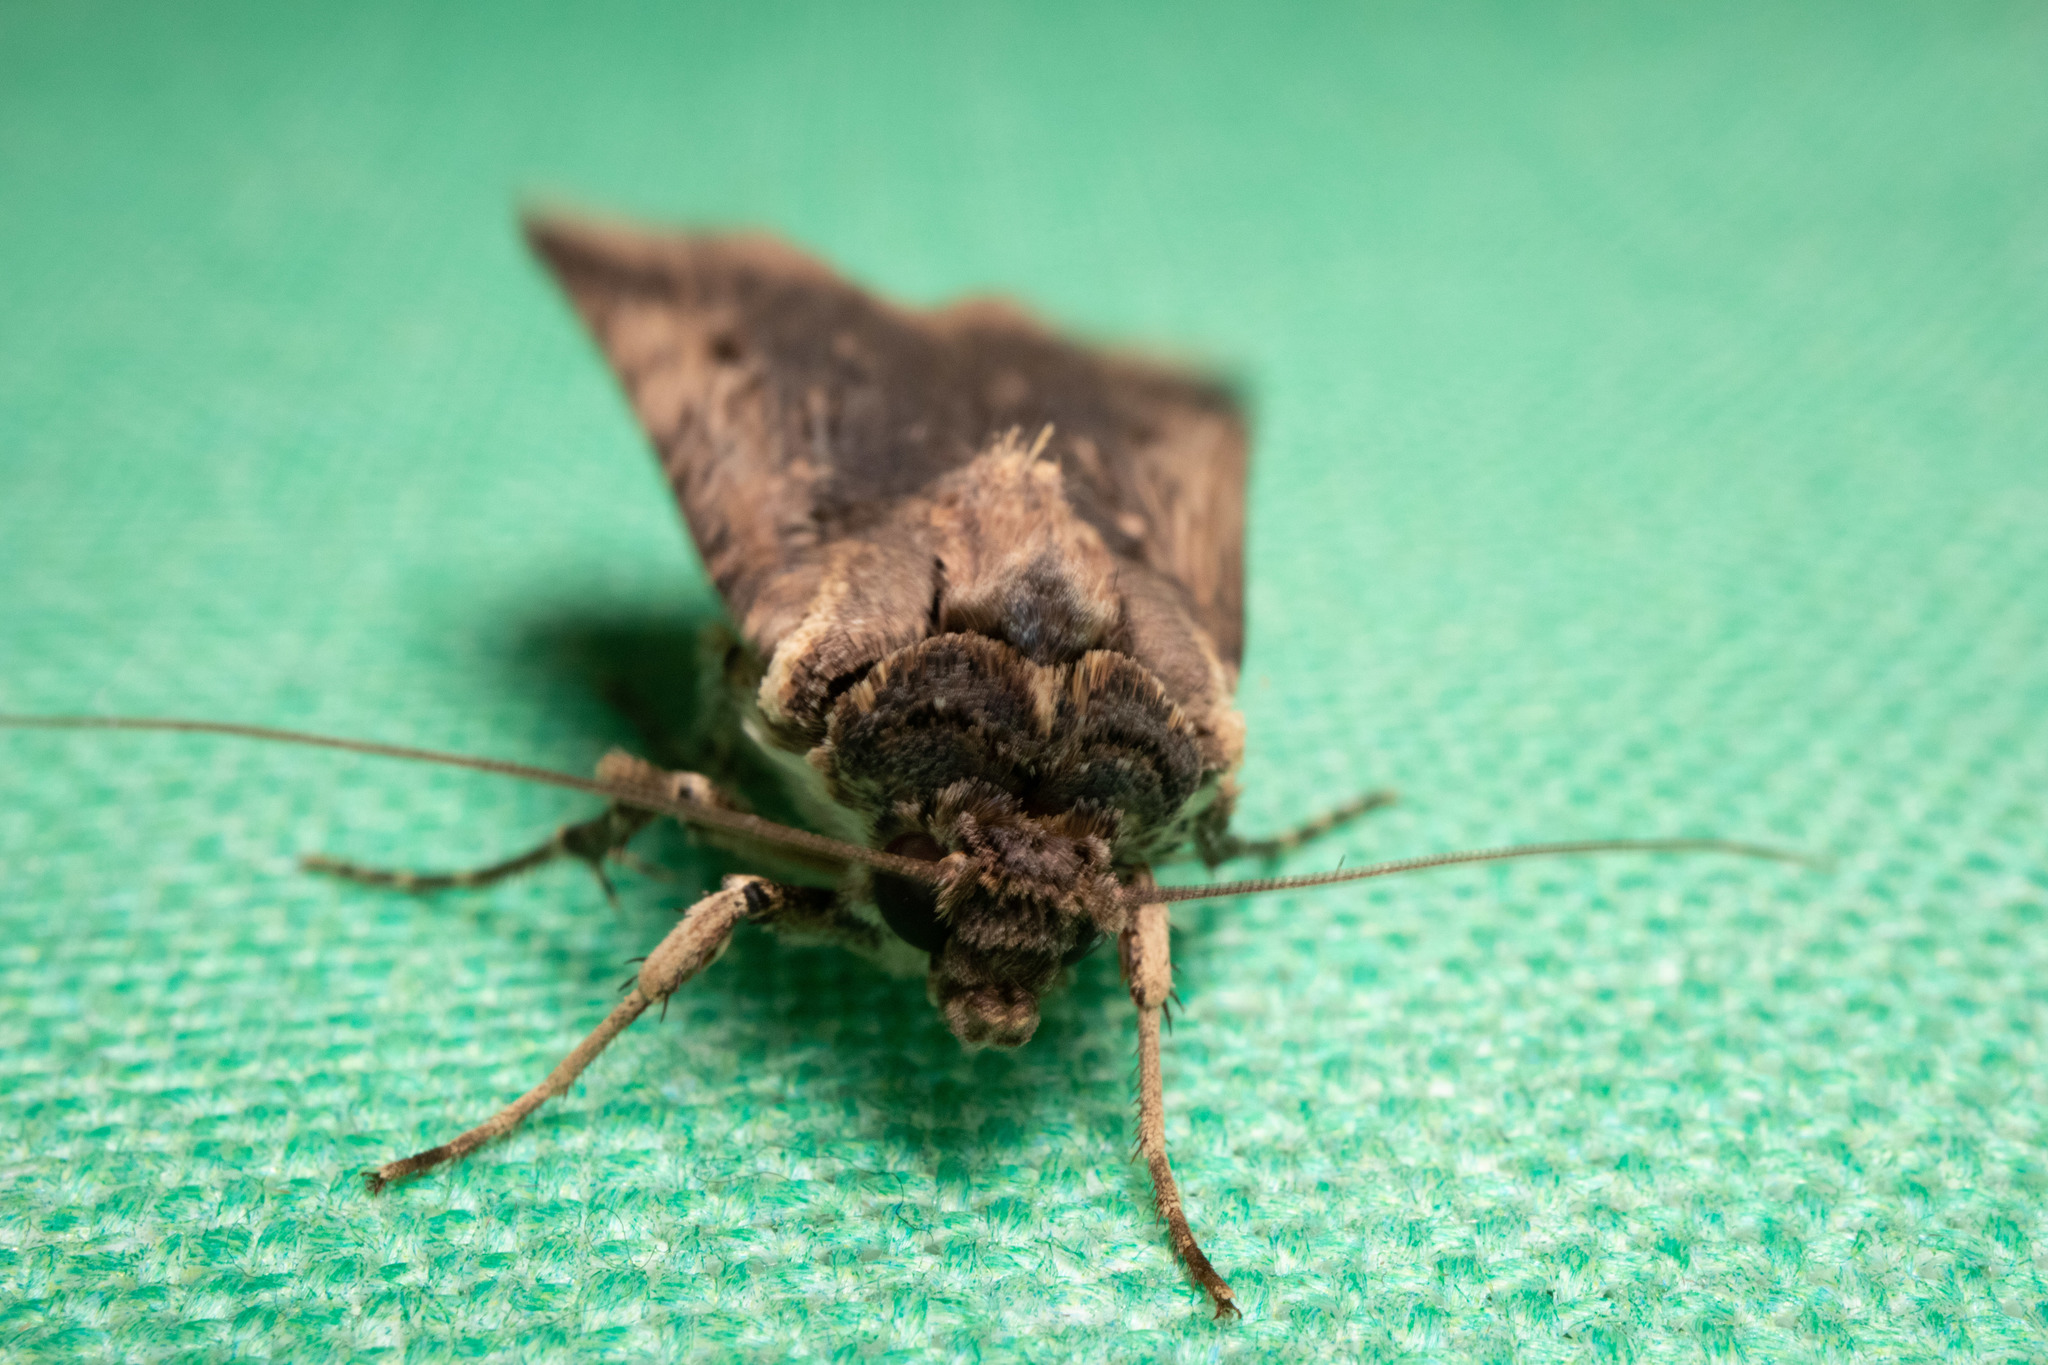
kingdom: Animalia
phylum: Arthropoda
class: Insecta
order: Lepidoptera
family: Noctuidae
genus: Feltia
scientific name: Feltia subterranea
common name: Granulate cutworm
